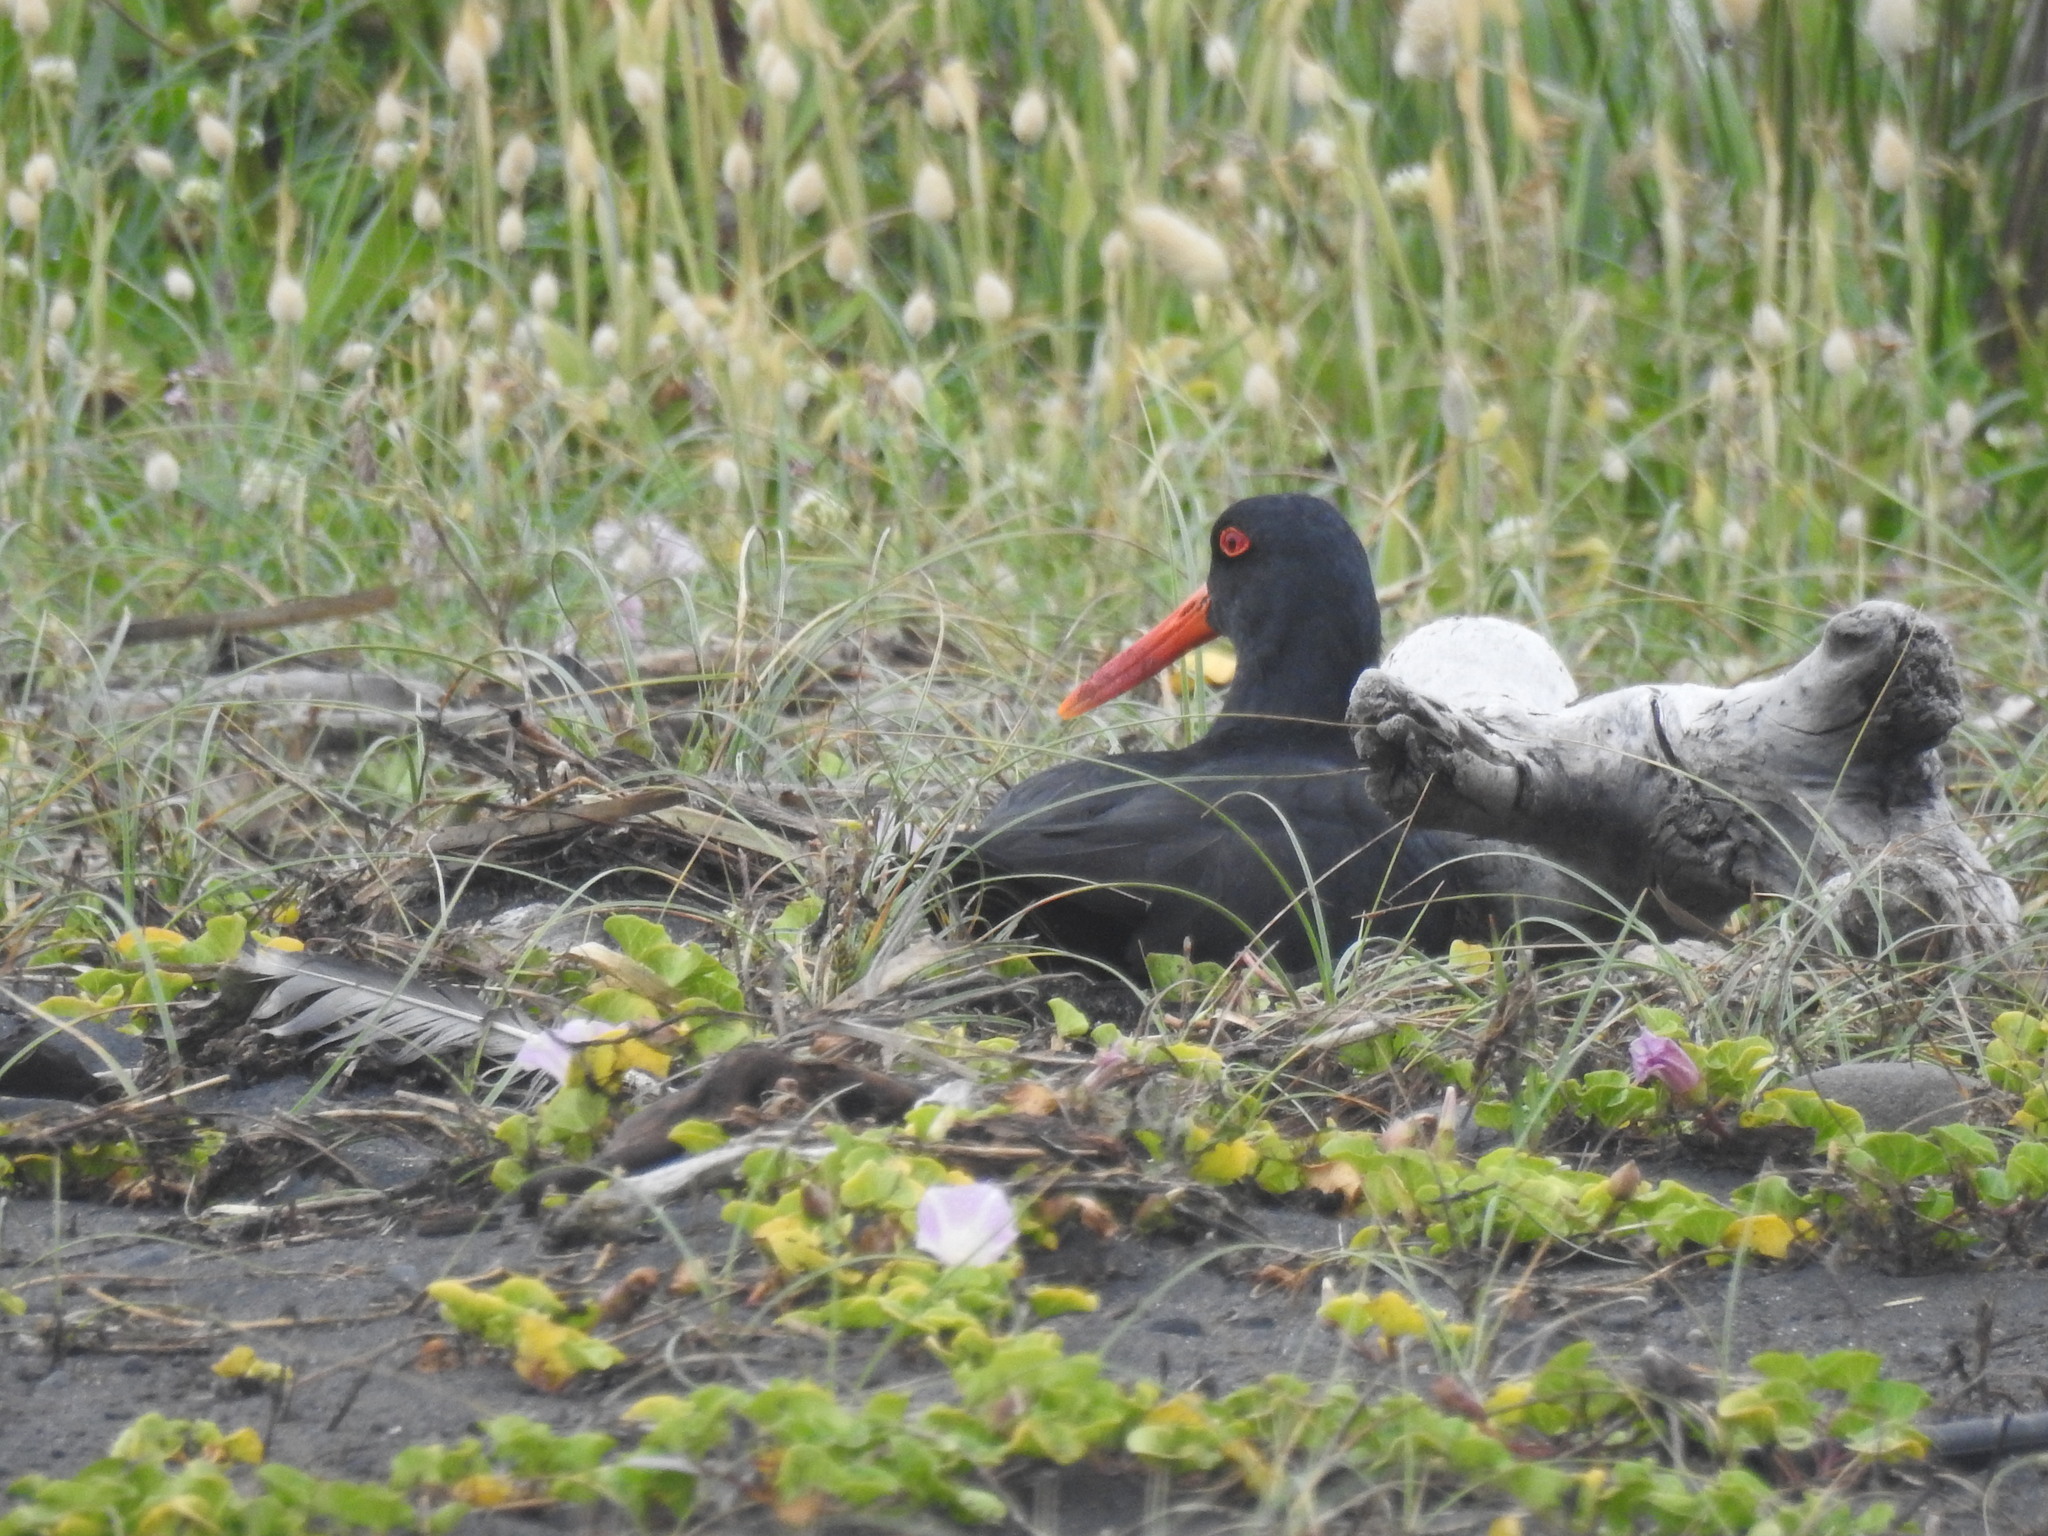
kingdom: Animalia
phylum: Chordata
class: Aves
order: Charadriiformes
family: Haematopodidae
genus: Haematopus
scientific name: Haematopus unicolor
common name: Variable oystercatcher
